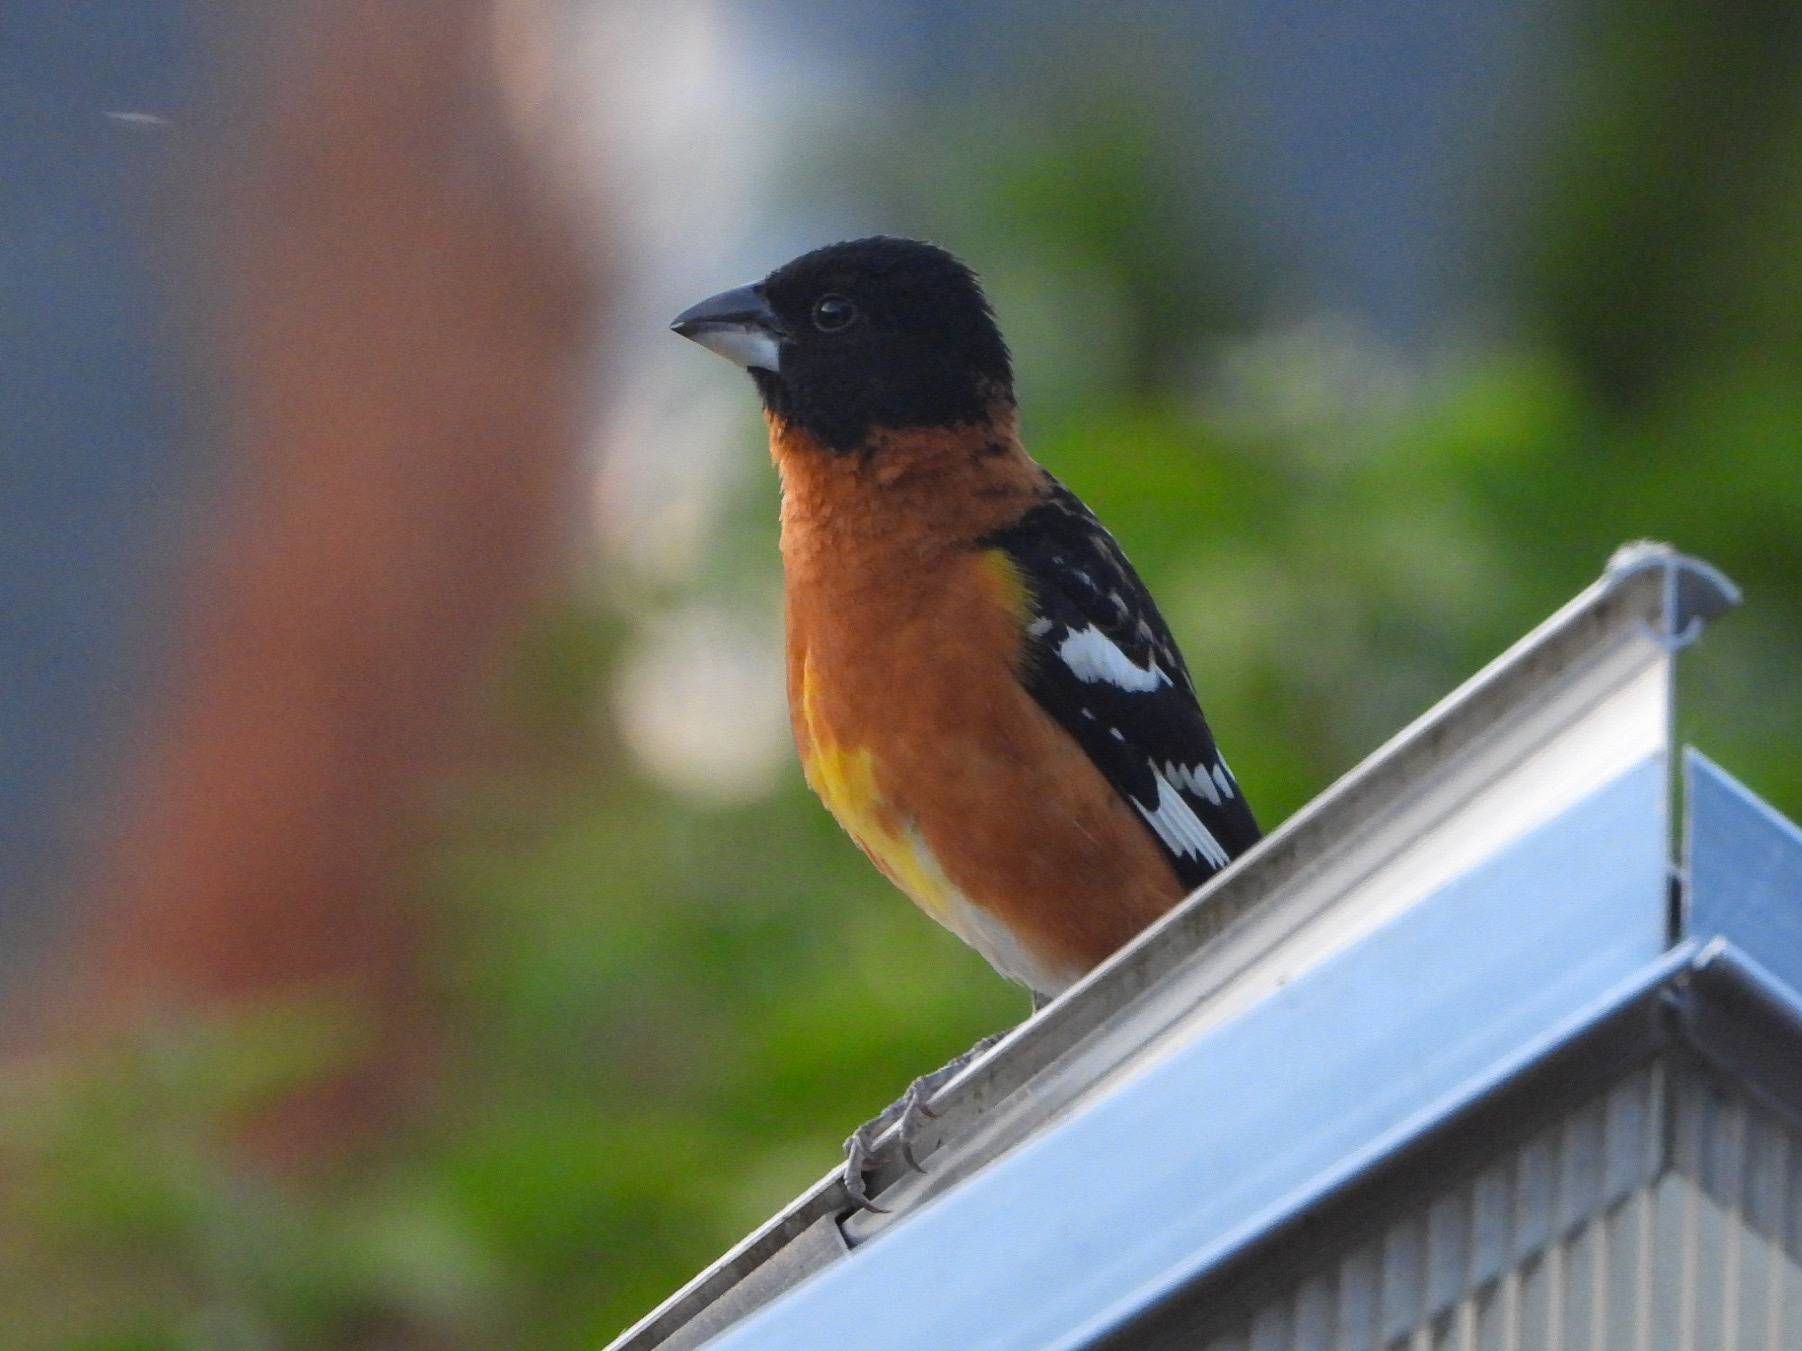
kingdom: Animalia
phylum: Chordata
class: Aves
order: Passeriformes
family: Cardinalidae
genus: Pheucticus
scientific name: Pheucticus melanocephalus
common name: Black-headed grosbeak
